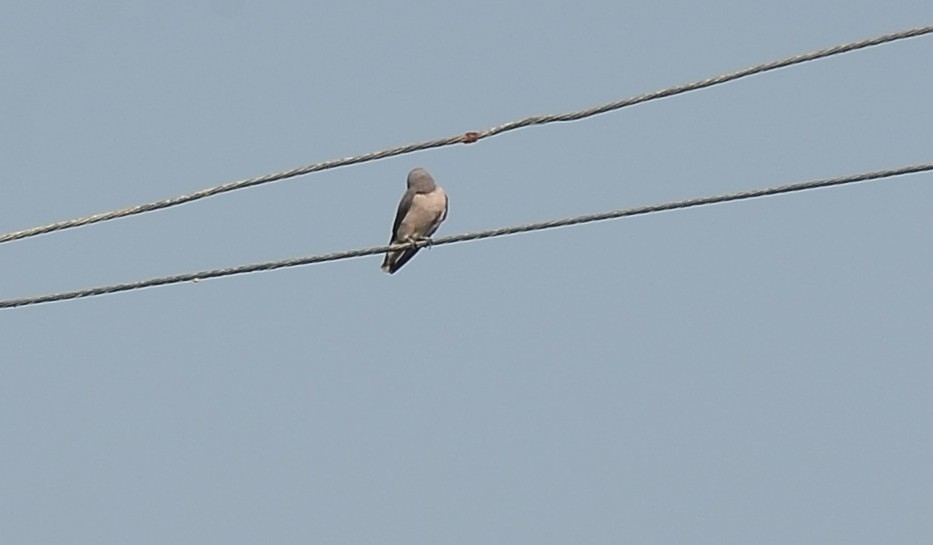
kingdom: Animalia
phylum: Chordata
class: Aves
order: Passeriformes
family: Artamidae
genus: Artamus
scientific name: Artamus fuscus
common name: Ashy woodswallow
